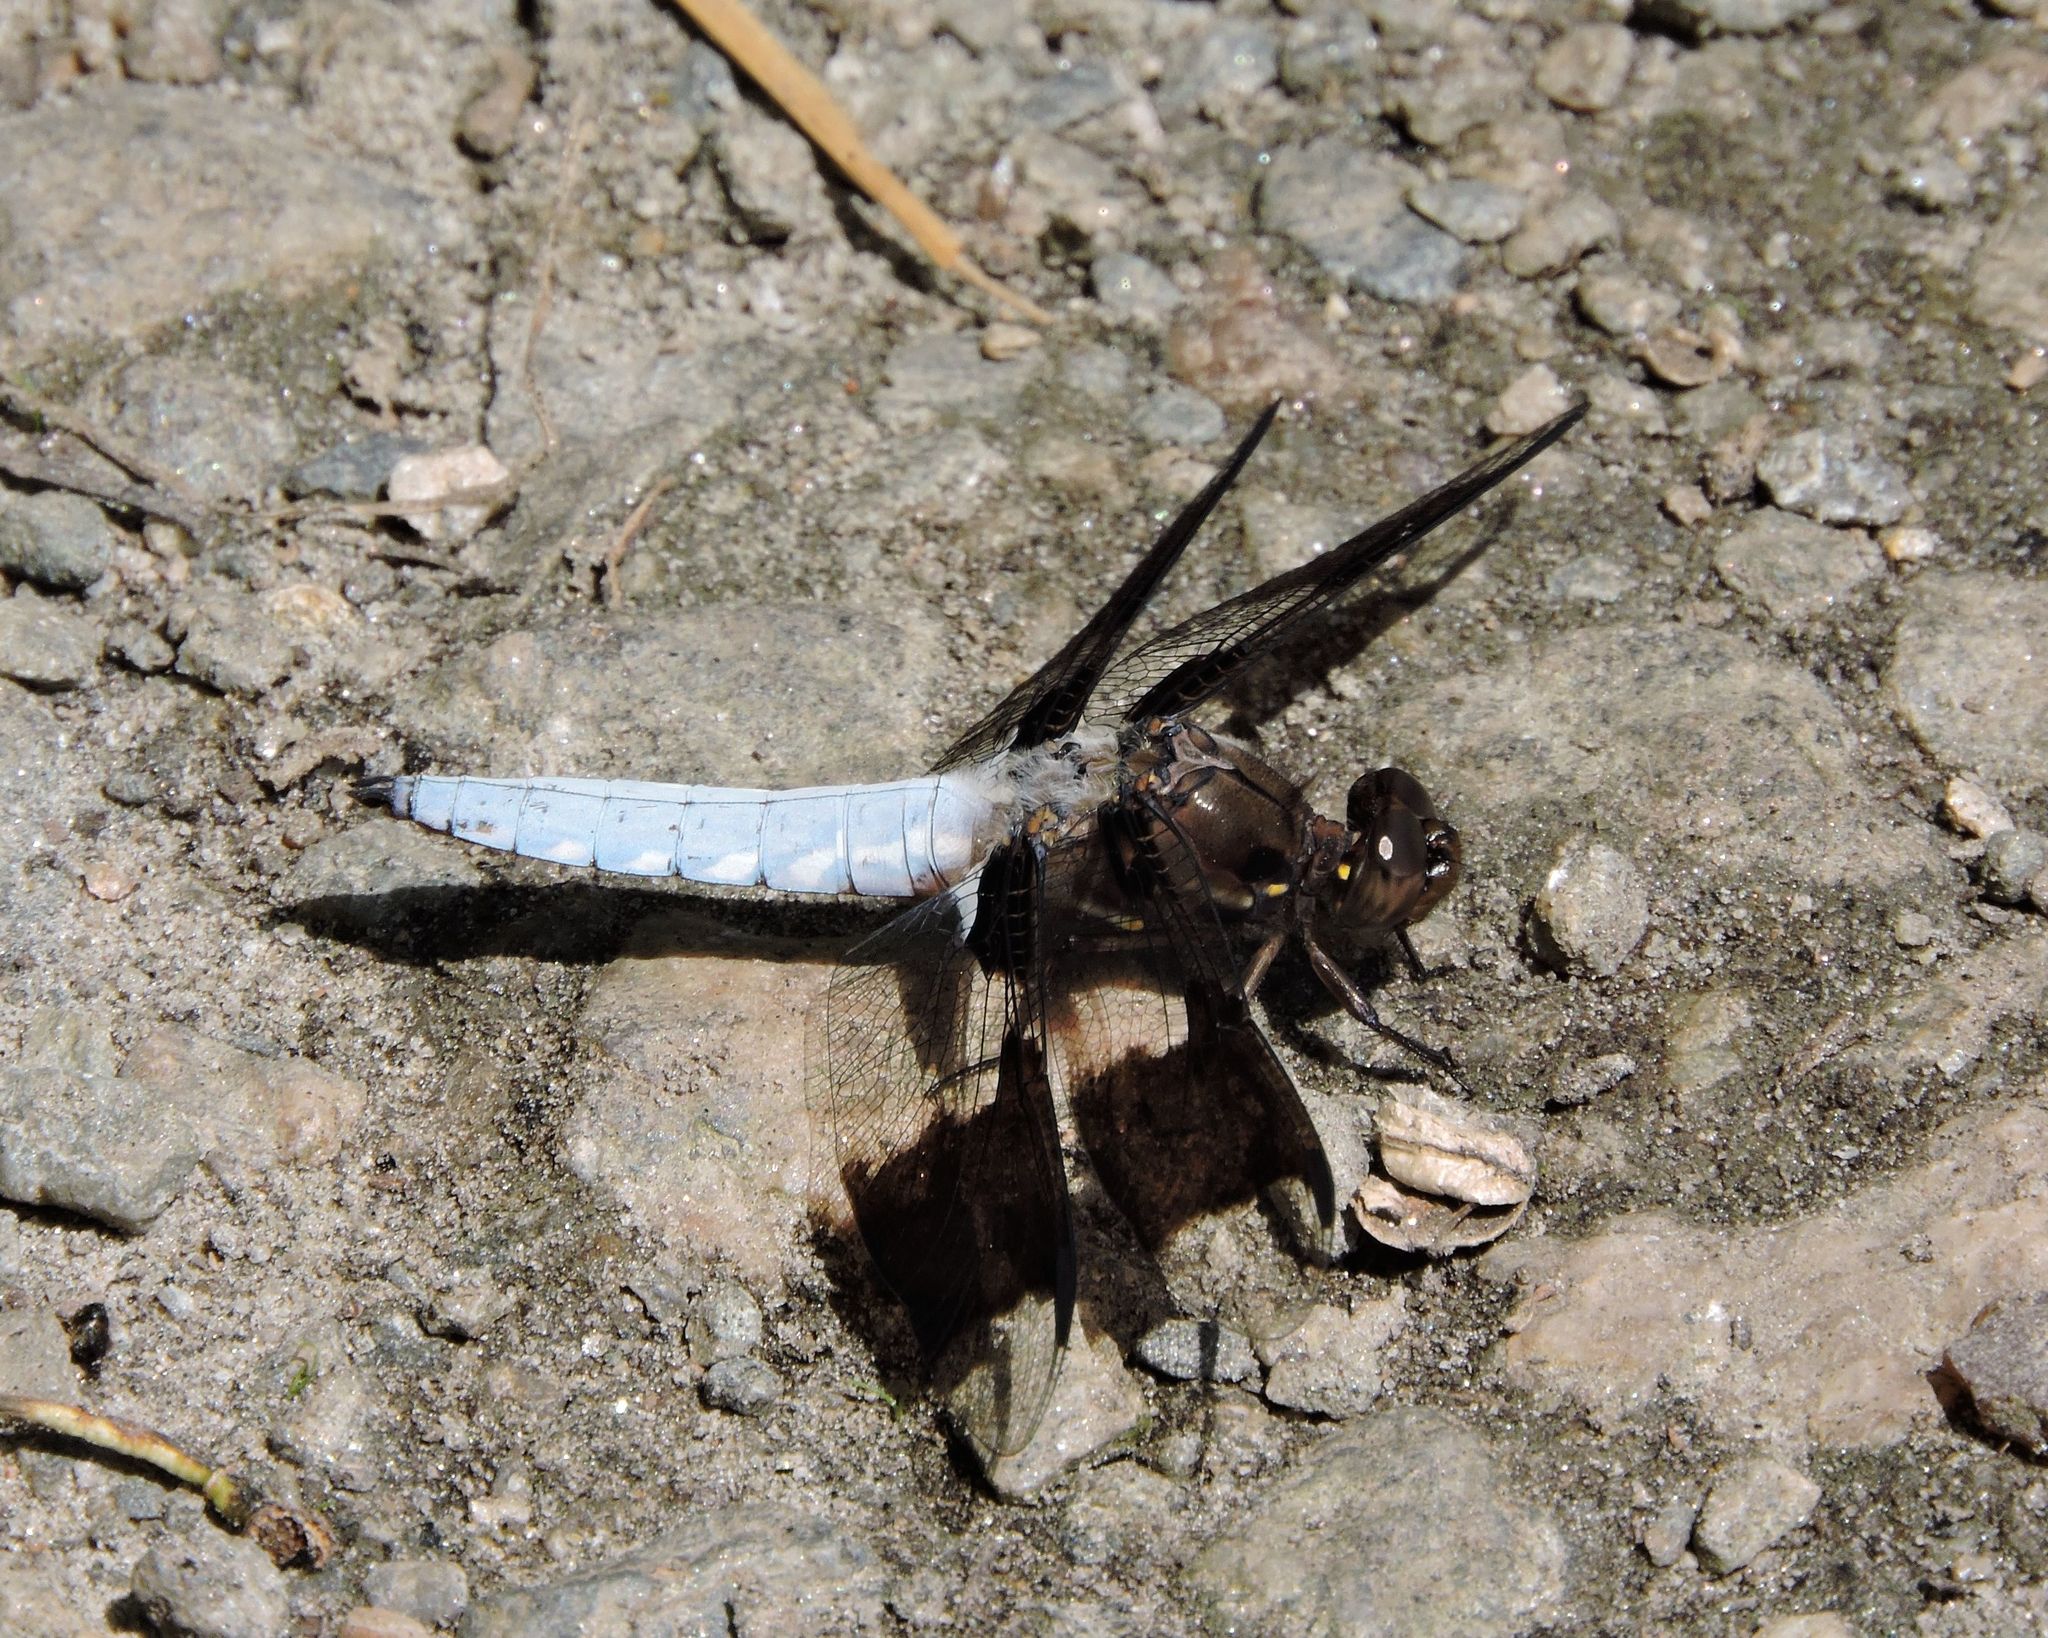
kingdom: Animalia
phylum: Arthropoda
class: Insecta
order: Odonata
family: Libellulidae
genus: Plathemis
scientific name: Plathemis lydia
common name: Common whitetail
